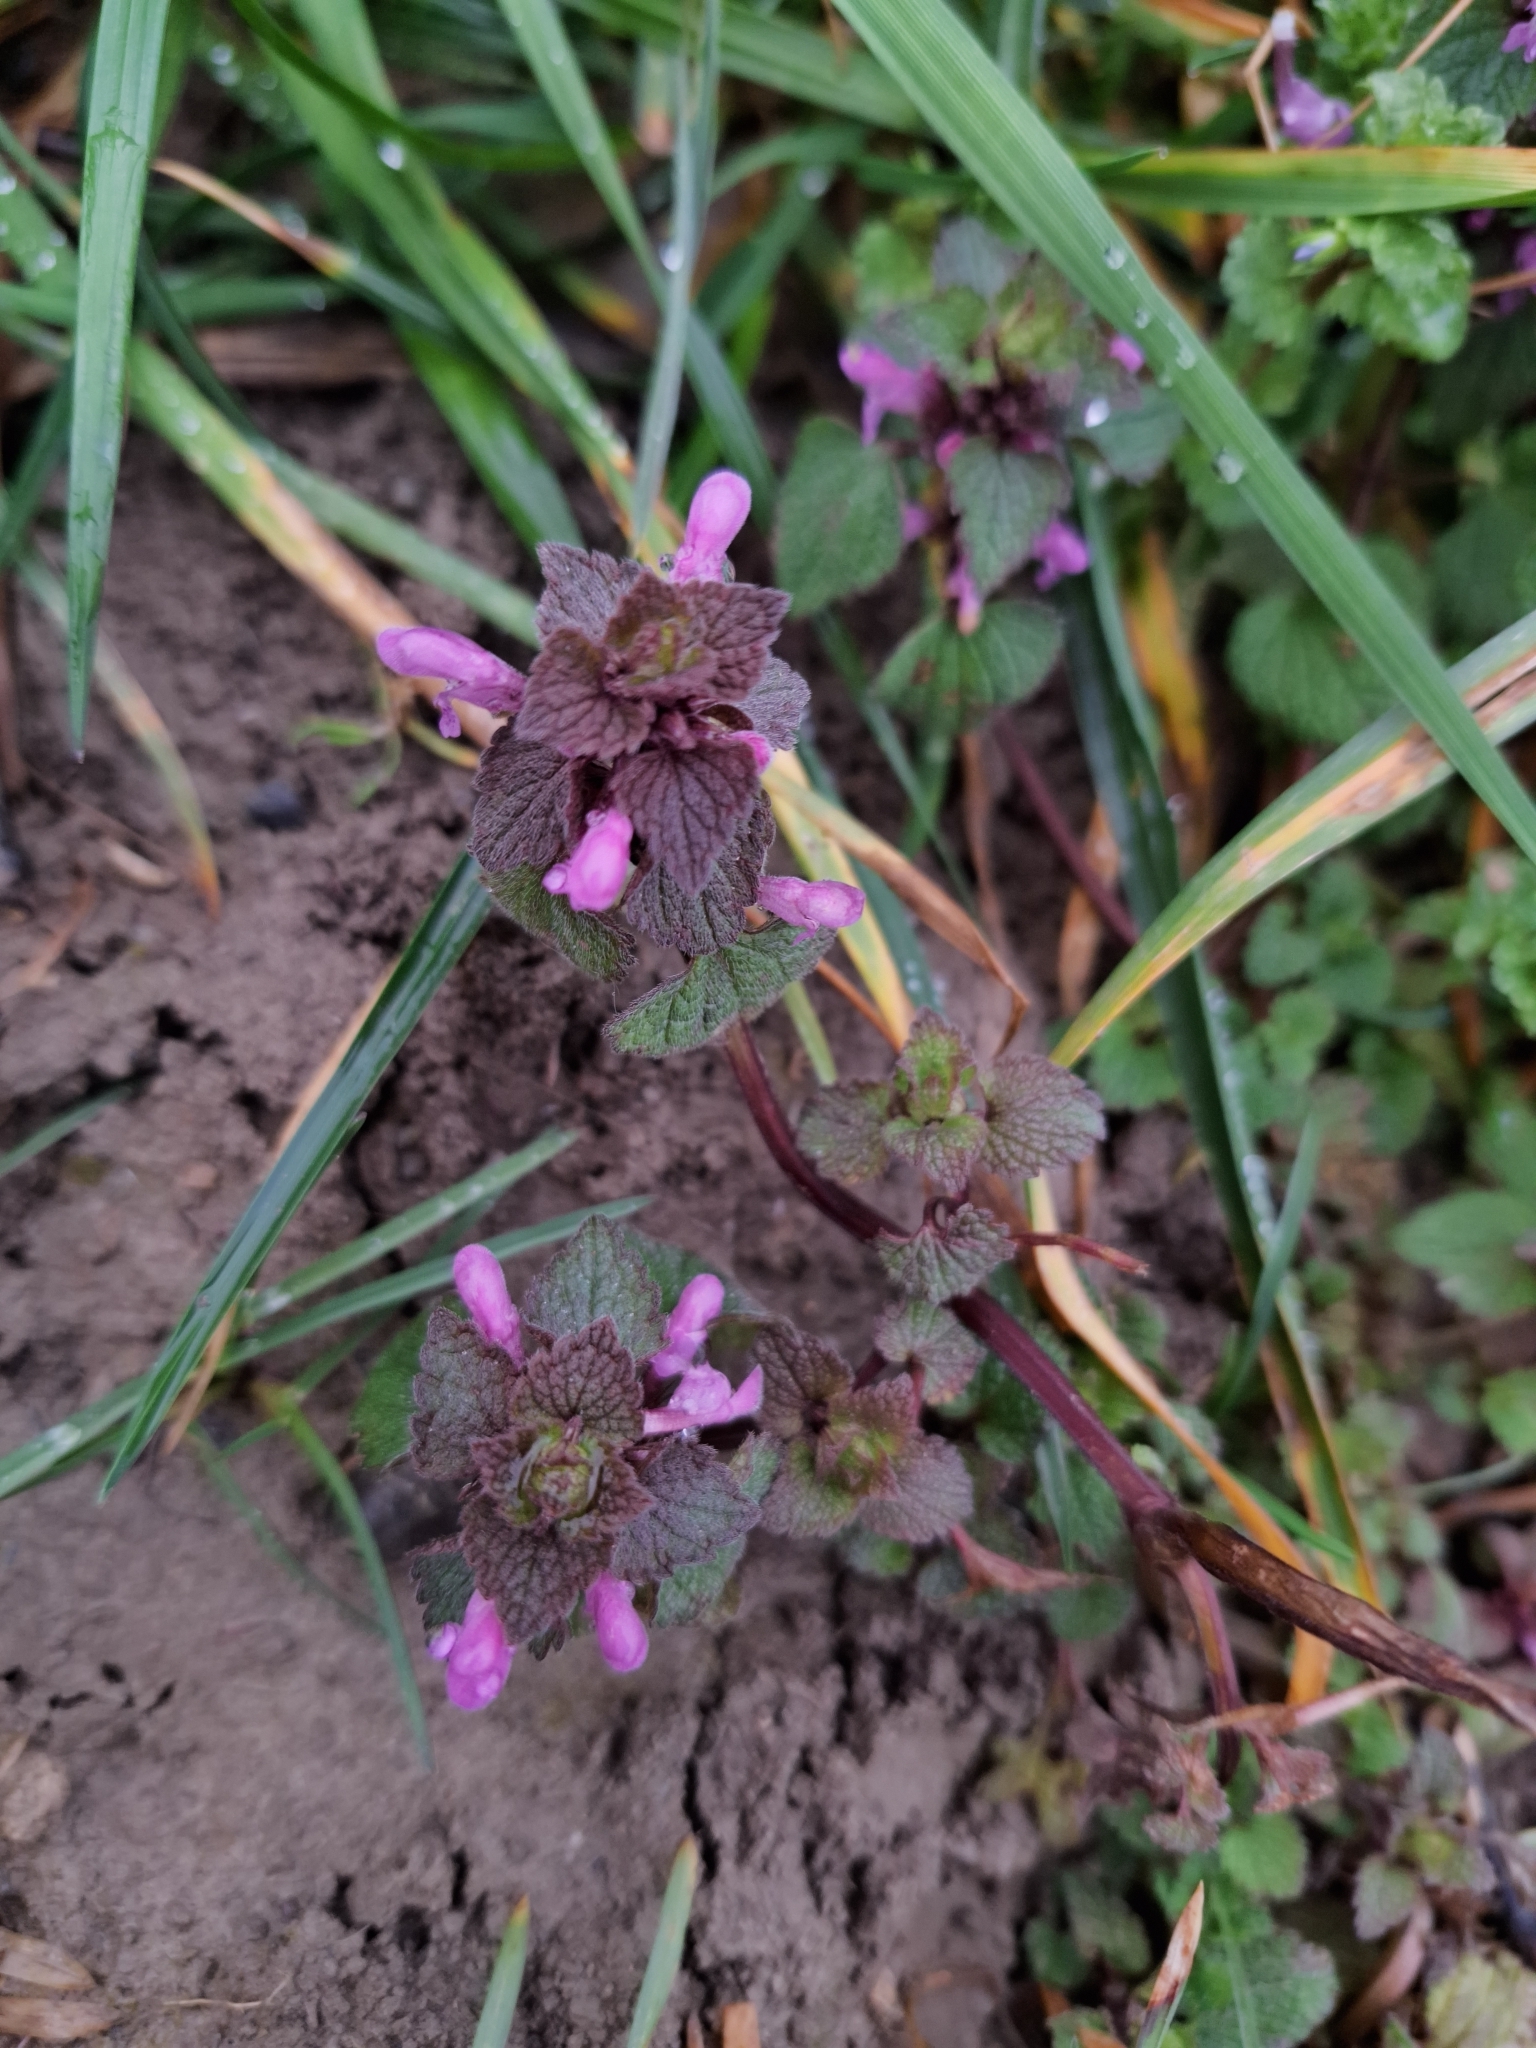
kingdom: Plantae
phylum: Tracheophyta
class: Magnoliopsida
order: Lamiales
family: Lamiaceae
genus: Lamium
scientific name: Lamium purpureum
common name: Red dead-nettle
